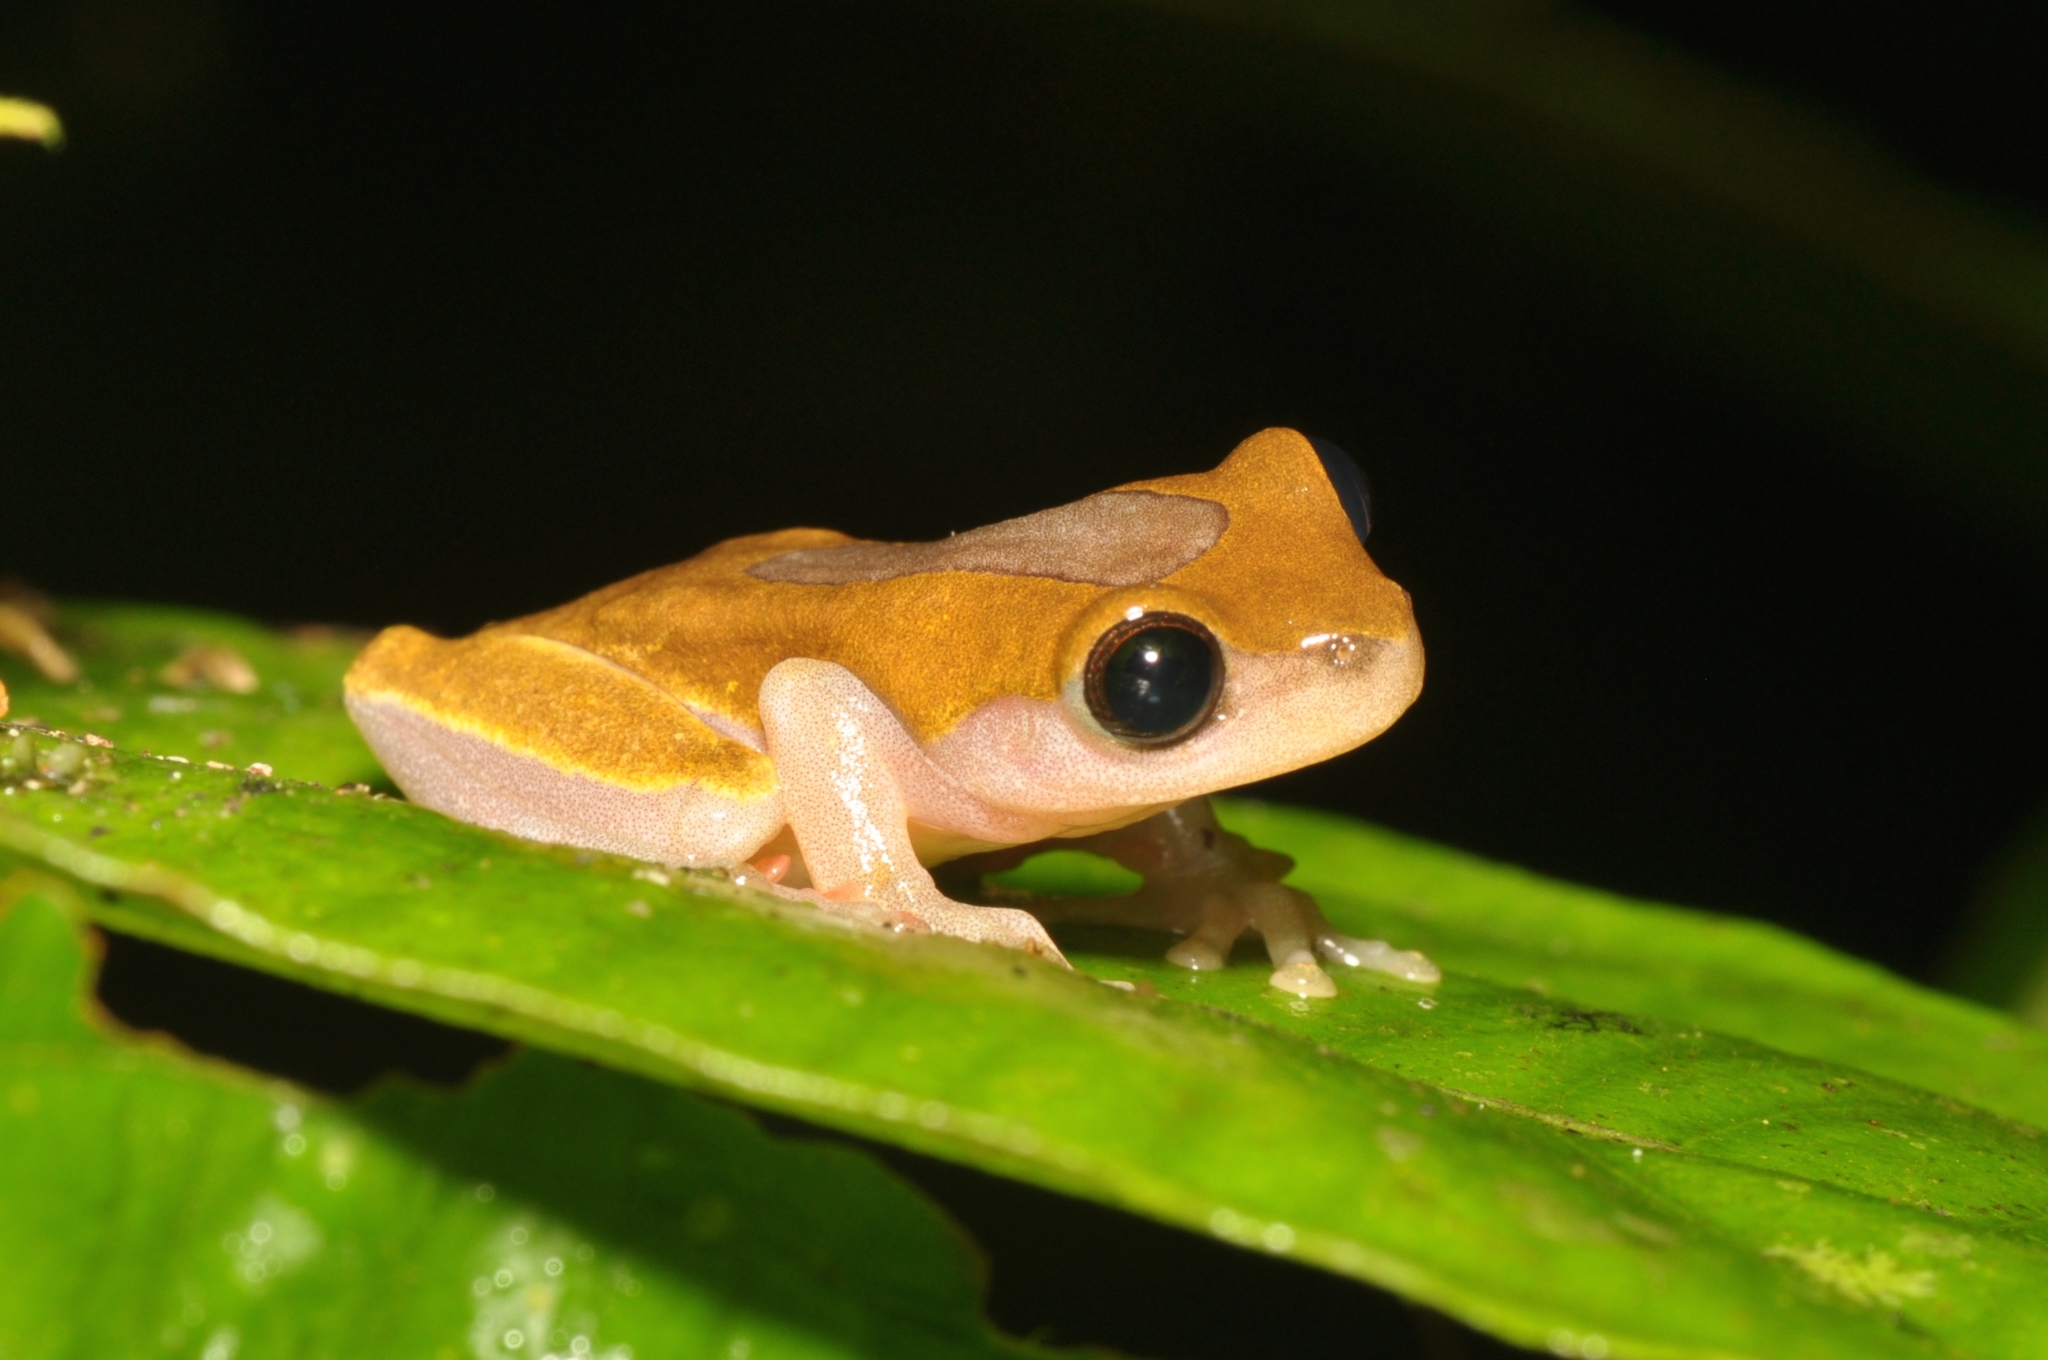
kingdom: Animalia
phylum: Chordata
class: Amphibia
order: Anura
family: Hylidae
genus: Dendropsophus
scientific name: Dendropsophus triangulum
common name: Triangle treefrog
